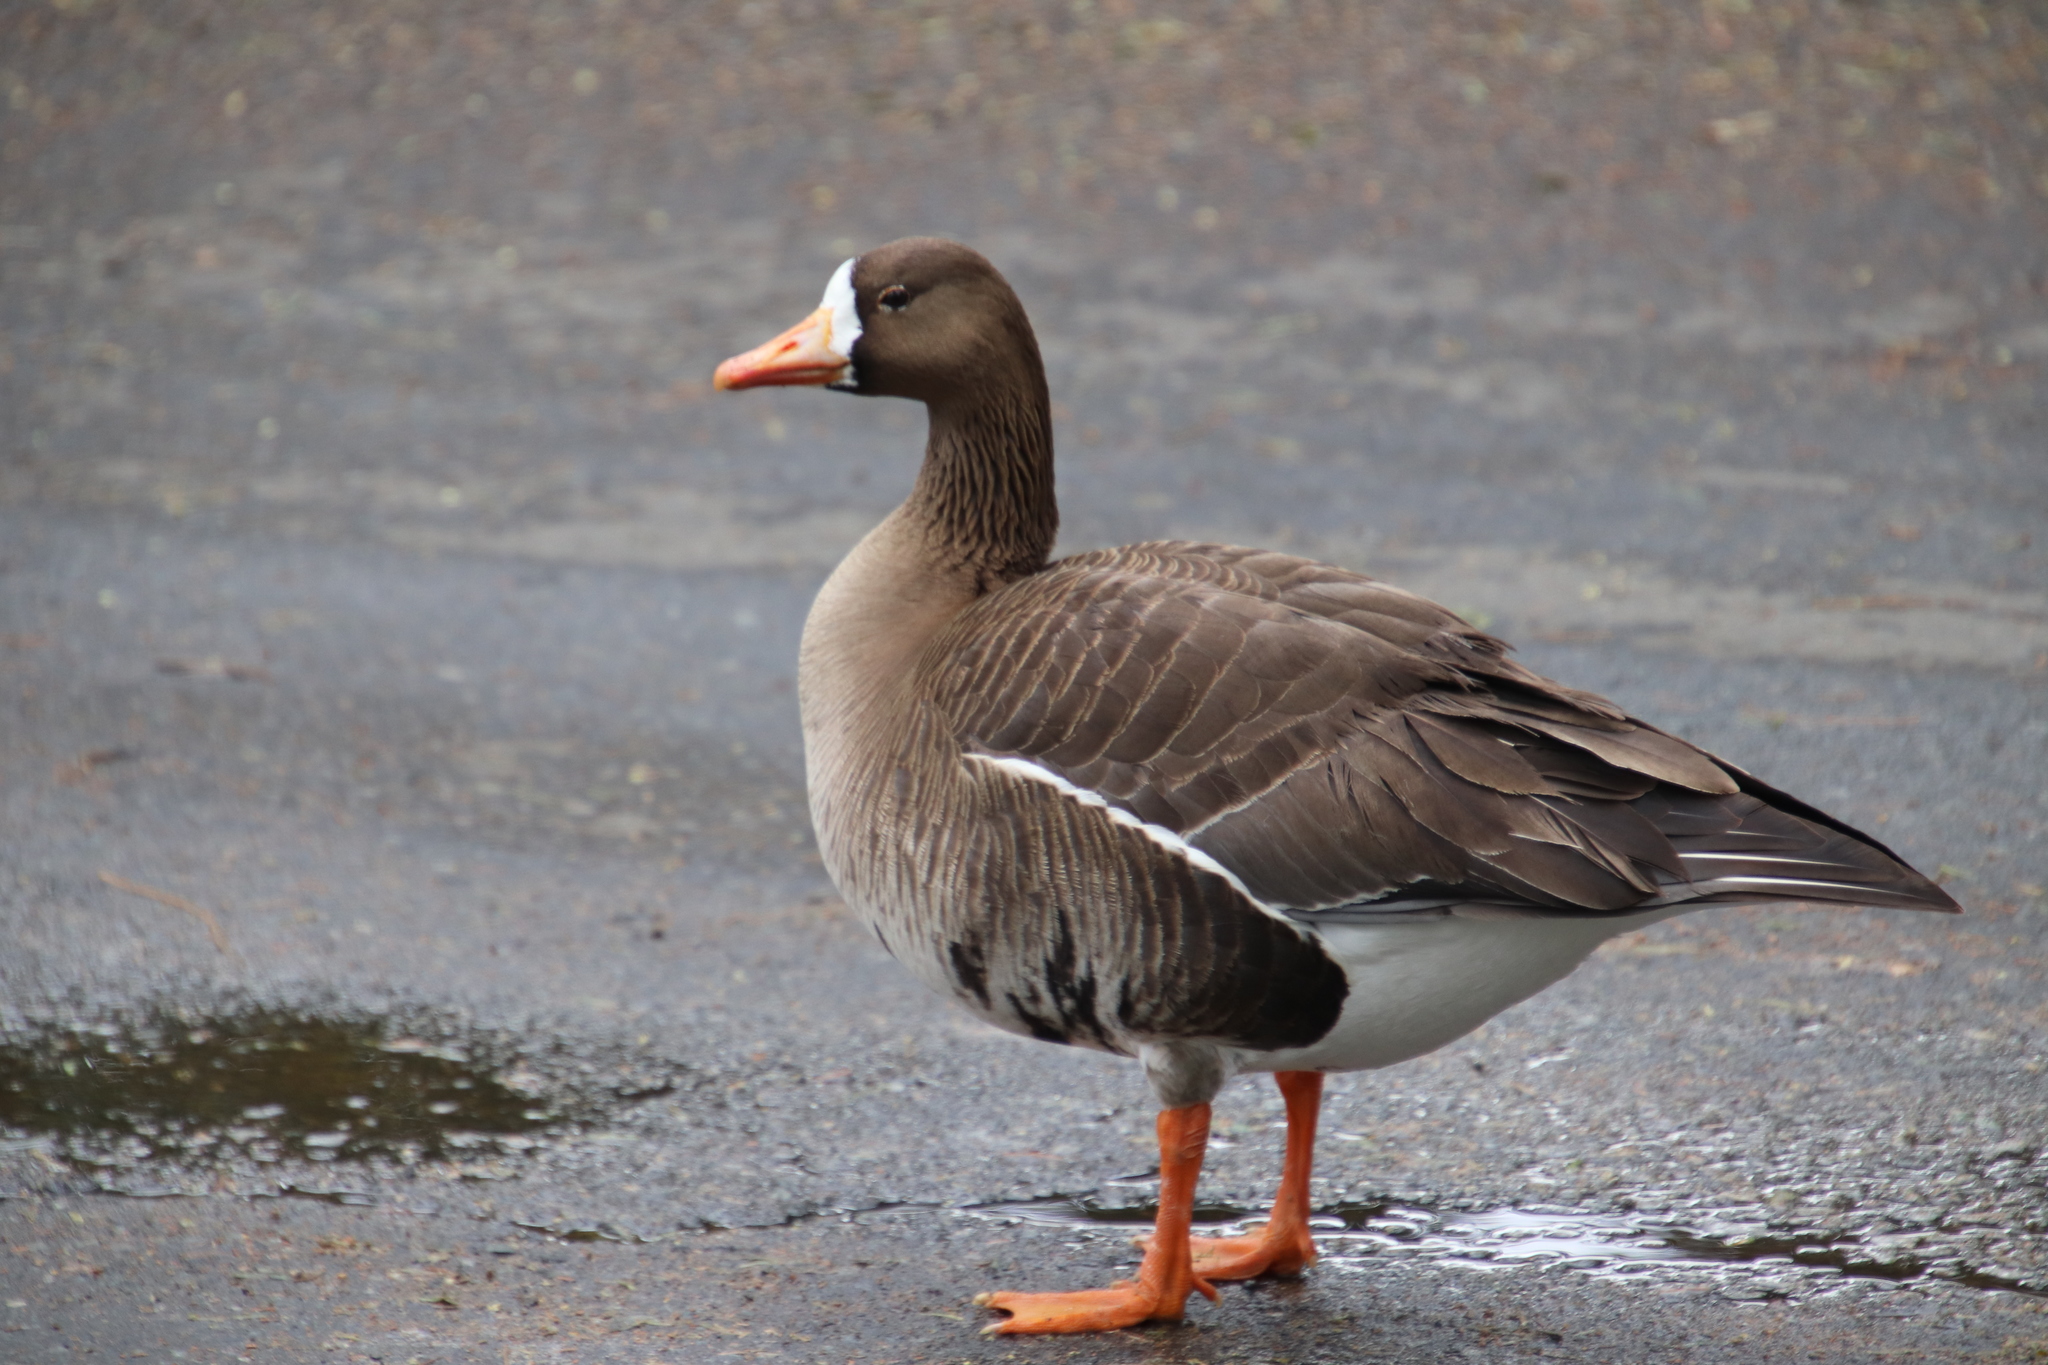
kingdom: Animalia
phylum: Chordata
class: Aves
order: Anseriformes
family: Anatidae
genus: Anser
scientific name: Anser albifrons
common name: Greater white-fronted goose
